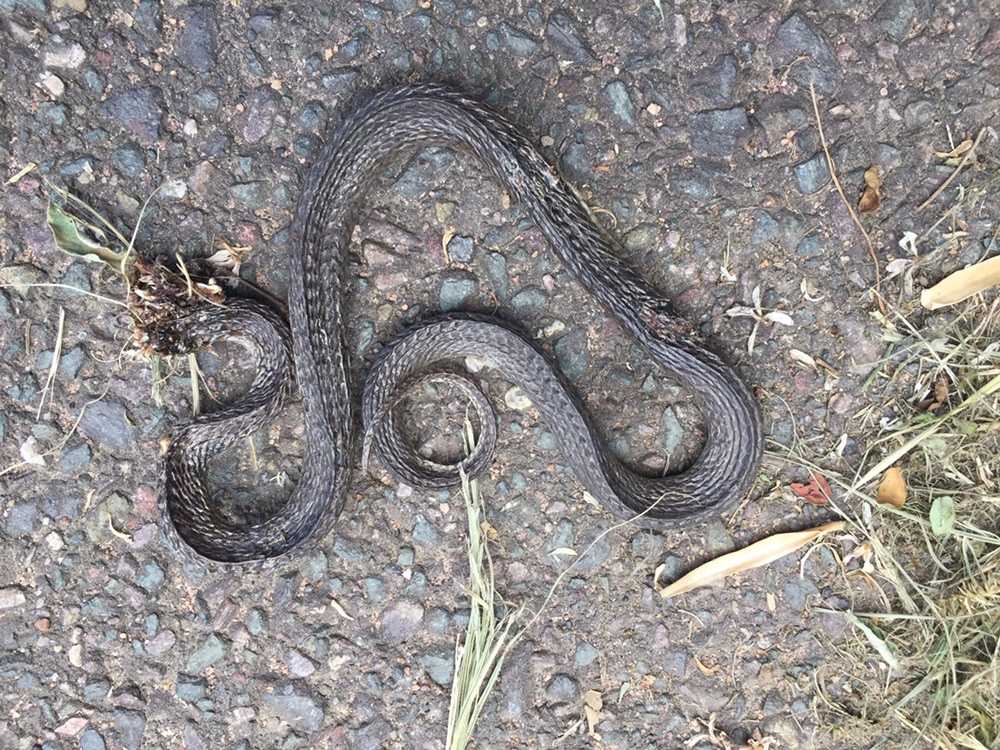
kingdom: Animalia
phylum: Chordata
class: Squamata
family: Colubridae
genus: Crotaphopeltis
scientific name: Crotaphopeltis hotamboeia
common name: Red-lipped snake
